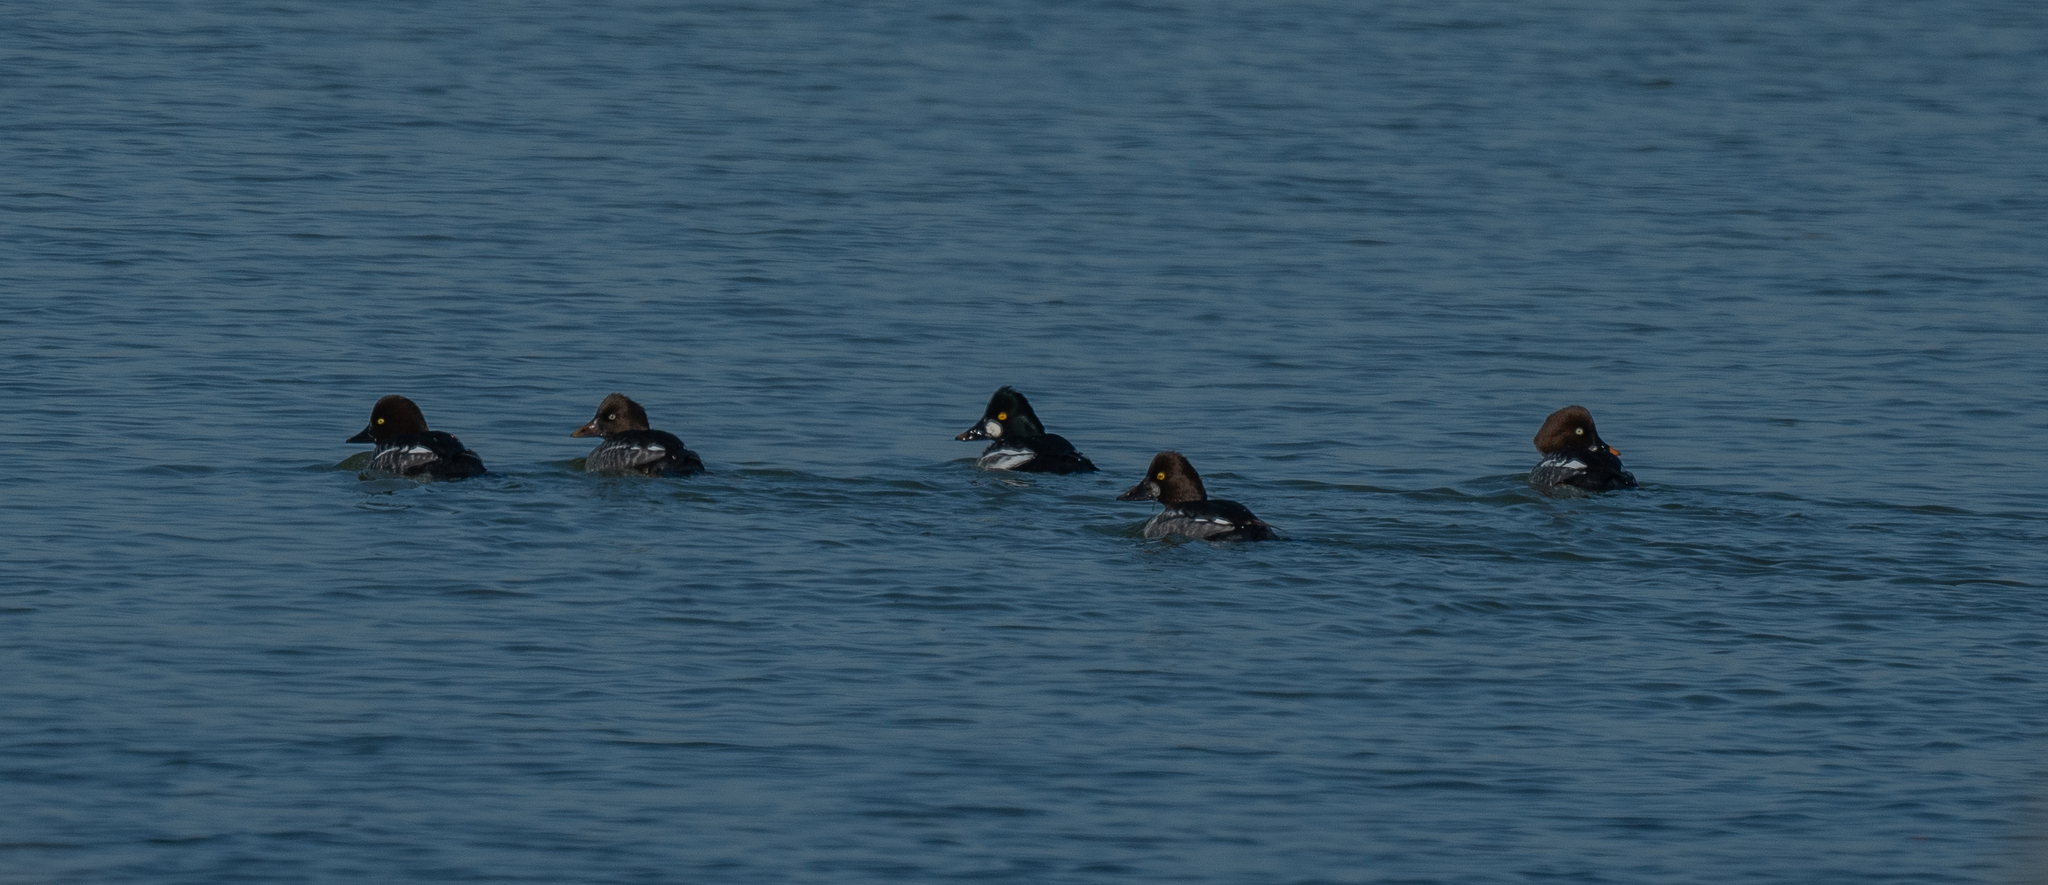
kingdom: Animalia
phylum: Chordata
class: Aves
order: Anseriformes
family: Anatidae
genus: Bucephala
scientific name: Bucephala clangula
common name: Common goldeneye
